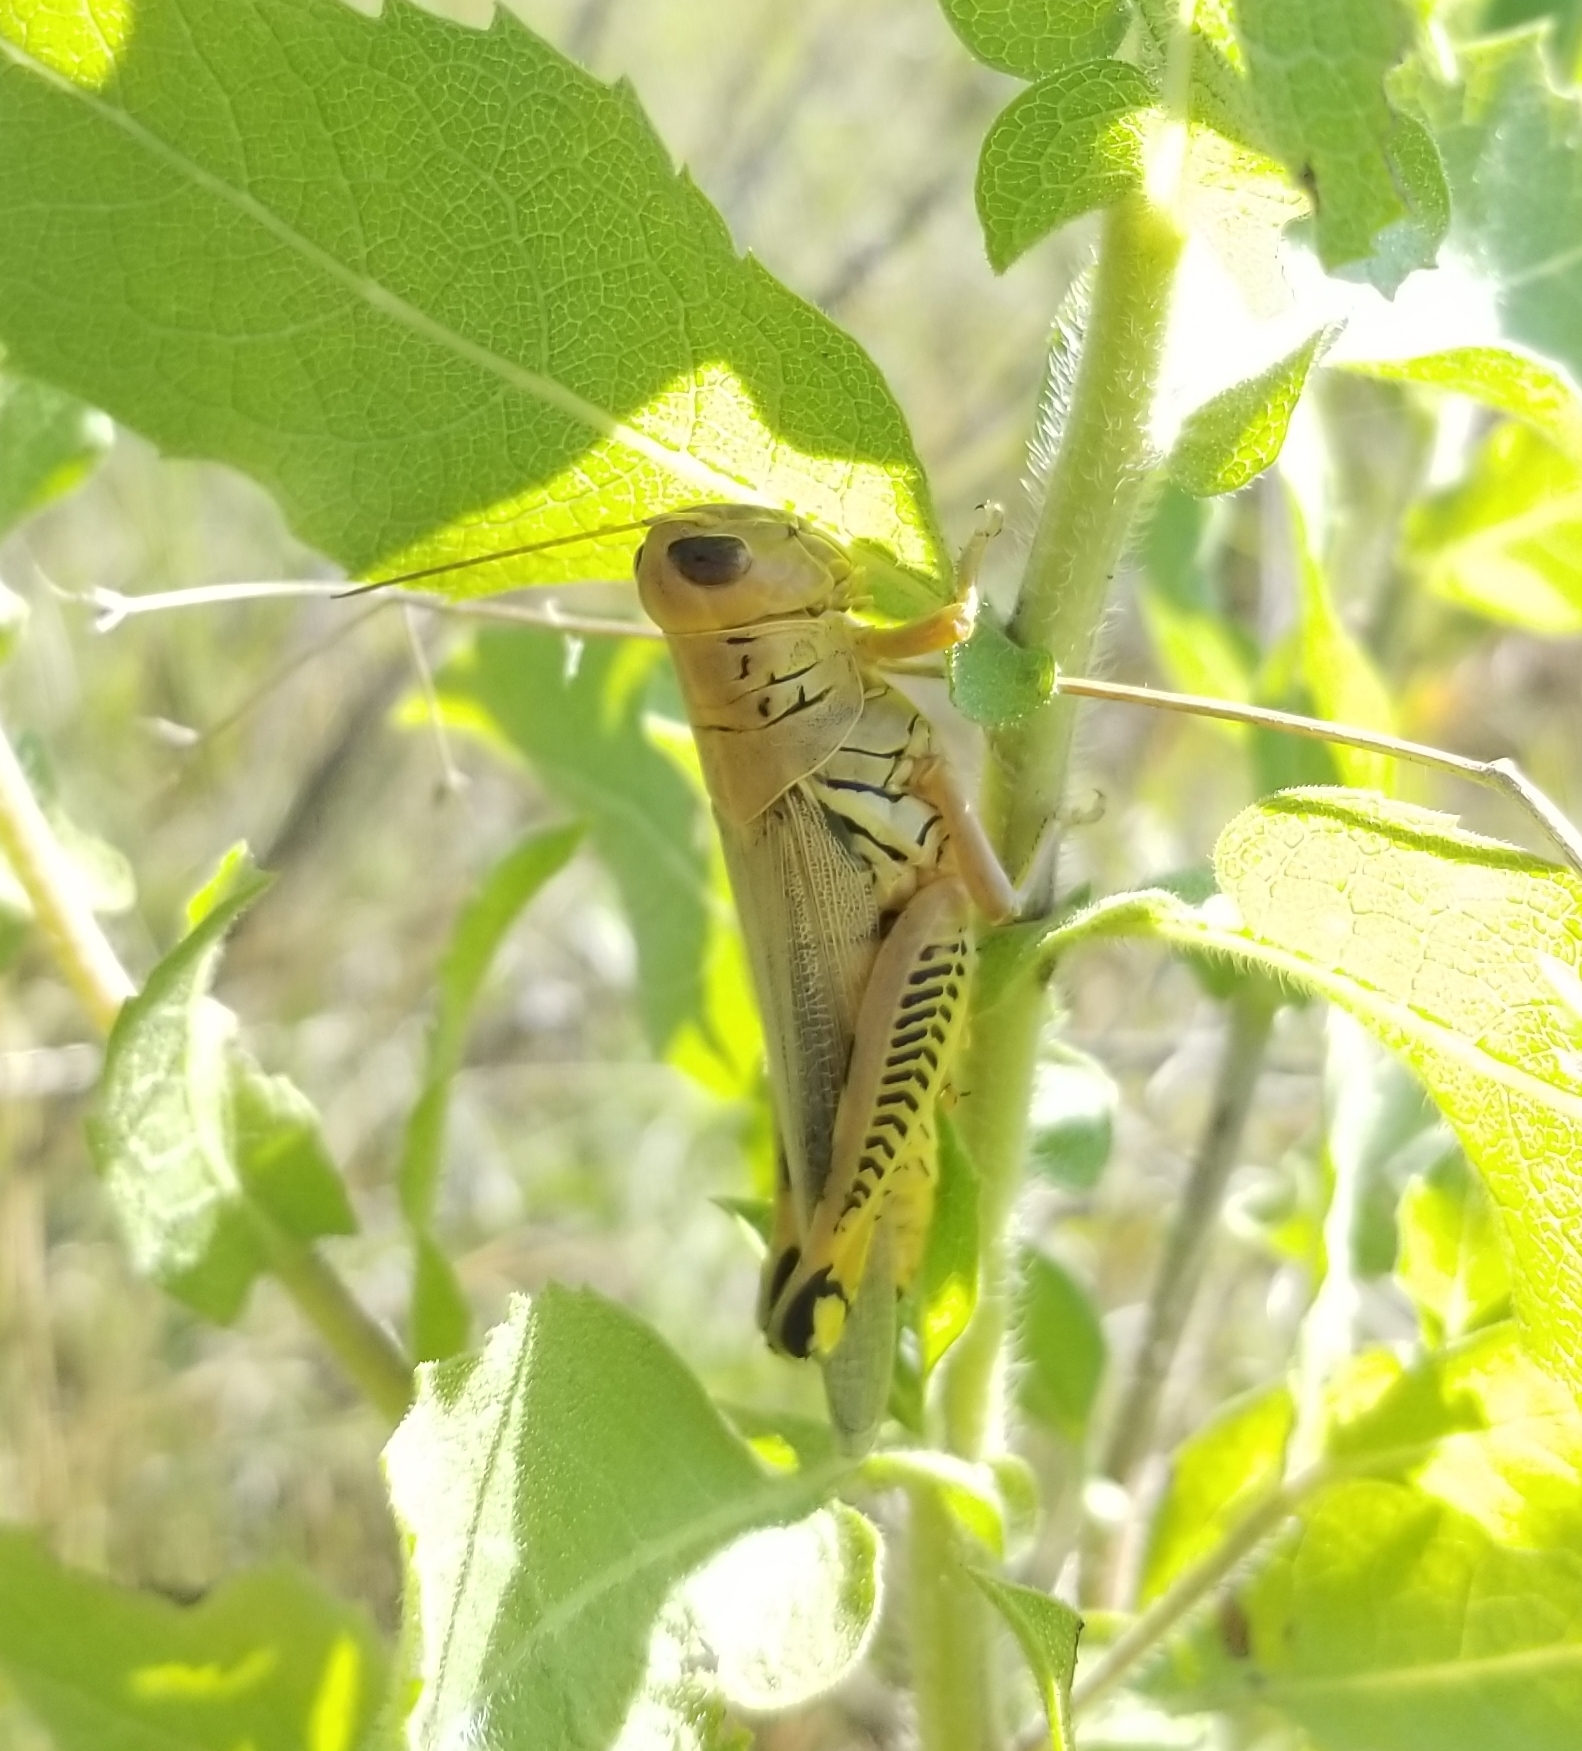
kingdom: Animalia
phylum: Arthropoda
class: Insecta
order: Orthoptera
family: Acrididae
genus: Melanoplus
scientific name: Melanoplus differentialis
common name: Differential grasshopper
